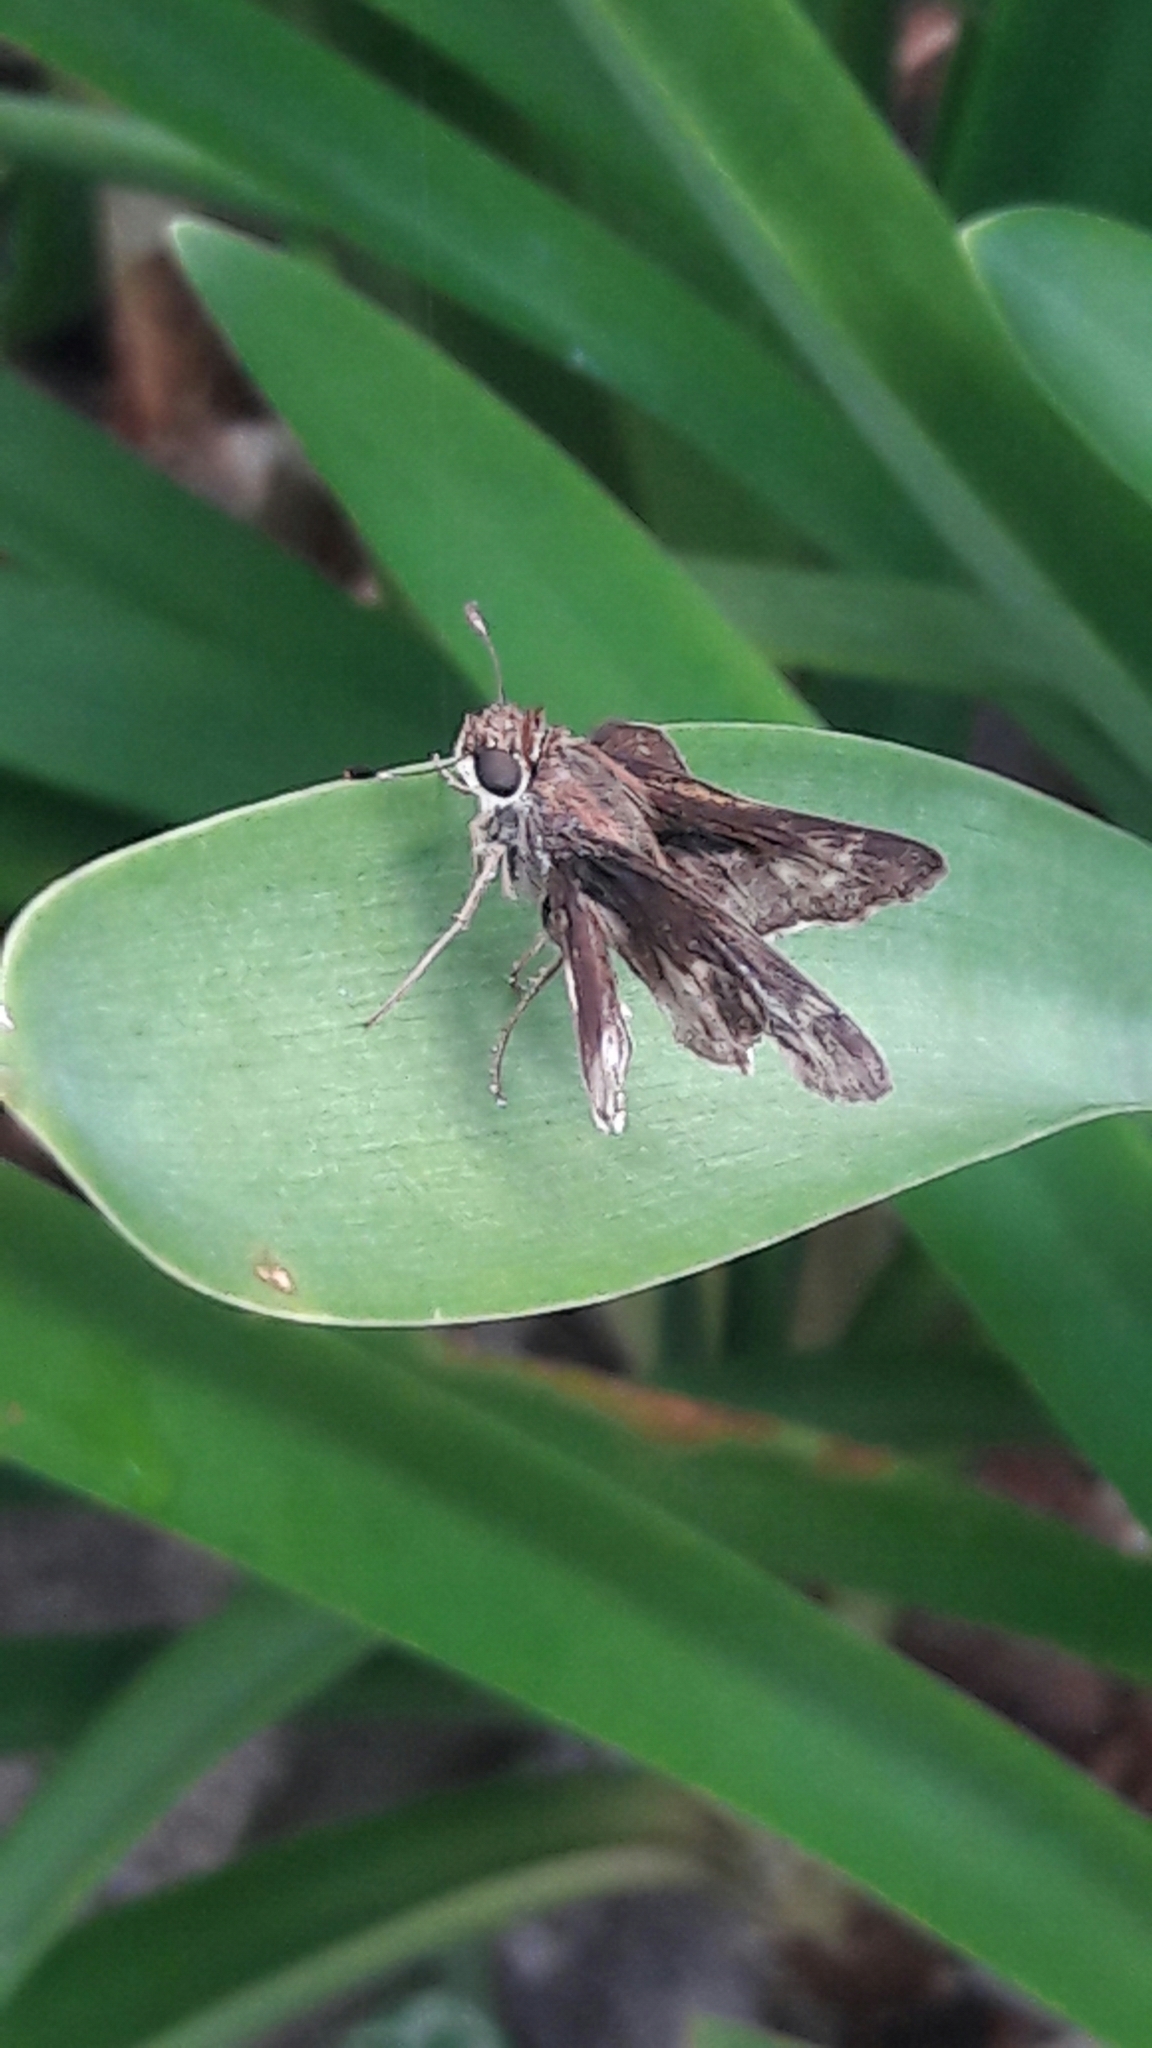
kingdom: Animalia
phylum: Arthropoda
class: Insecta
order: Lepidoptera
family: Hesperiidae
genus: Pompeius
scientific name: Pompeius pompeius
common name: Pompeius skipper
